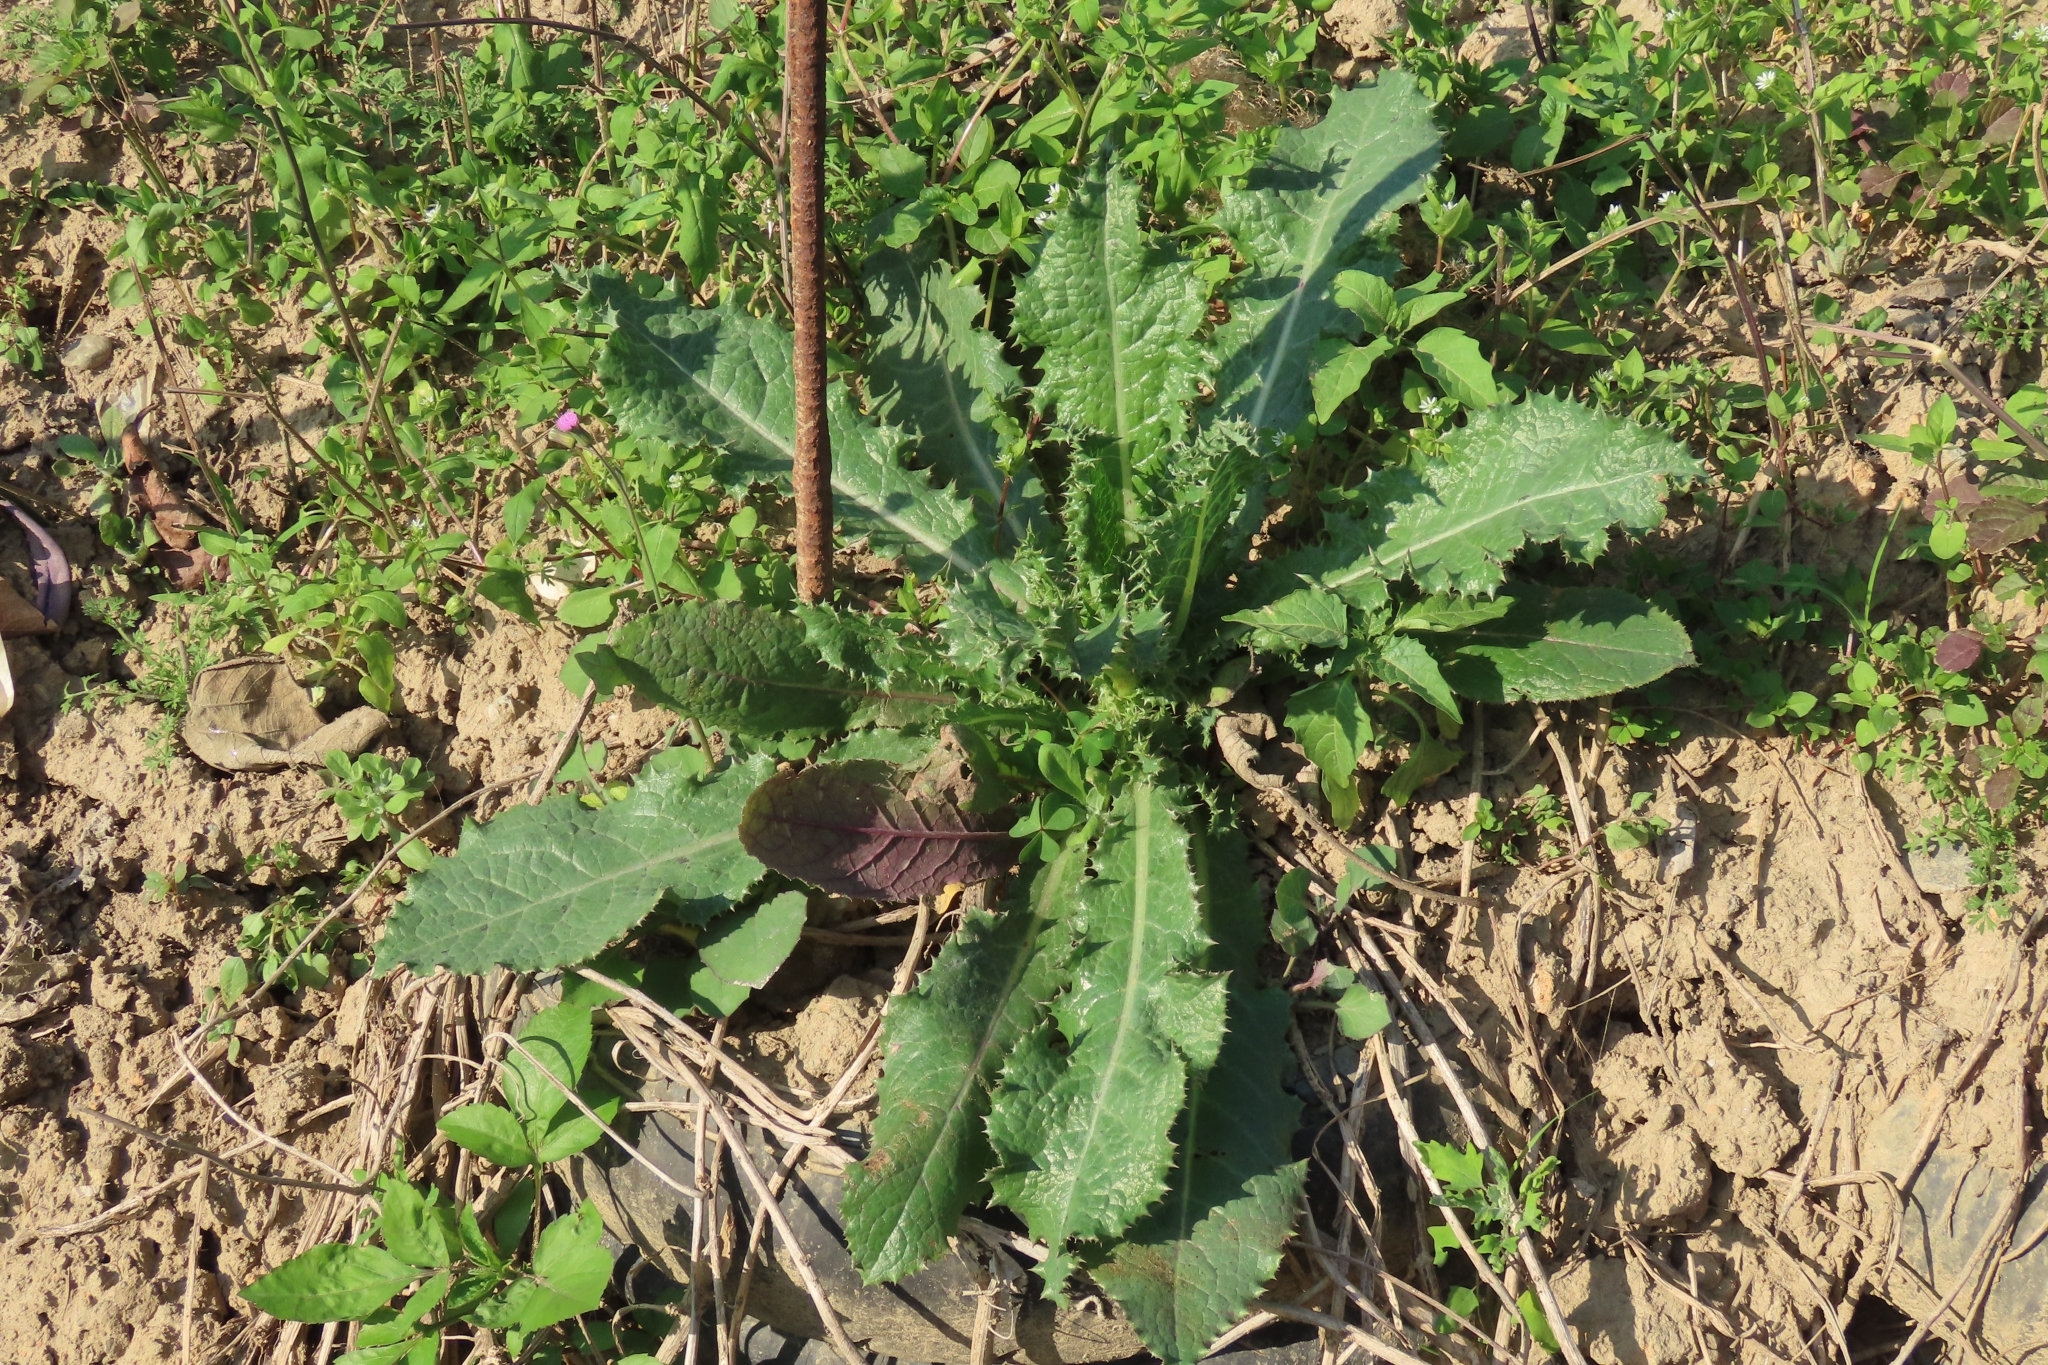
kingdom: Plantae
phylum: Tracheophyta
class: Magnoliopsida
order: Asterales
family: Asteraceae
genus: Sonchus
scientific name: Sonchus asper
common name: Prickly sow-thistle
